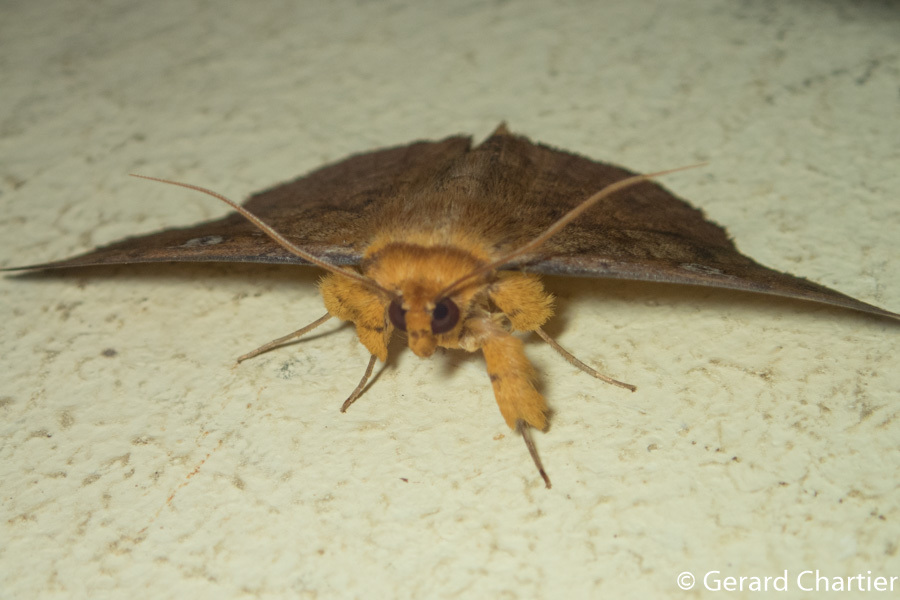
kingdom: Animalia
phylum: Arthropoda
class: Insecta
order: Lepidoptera
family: Erebidae
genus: Talariga
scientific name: Talariga capacior
